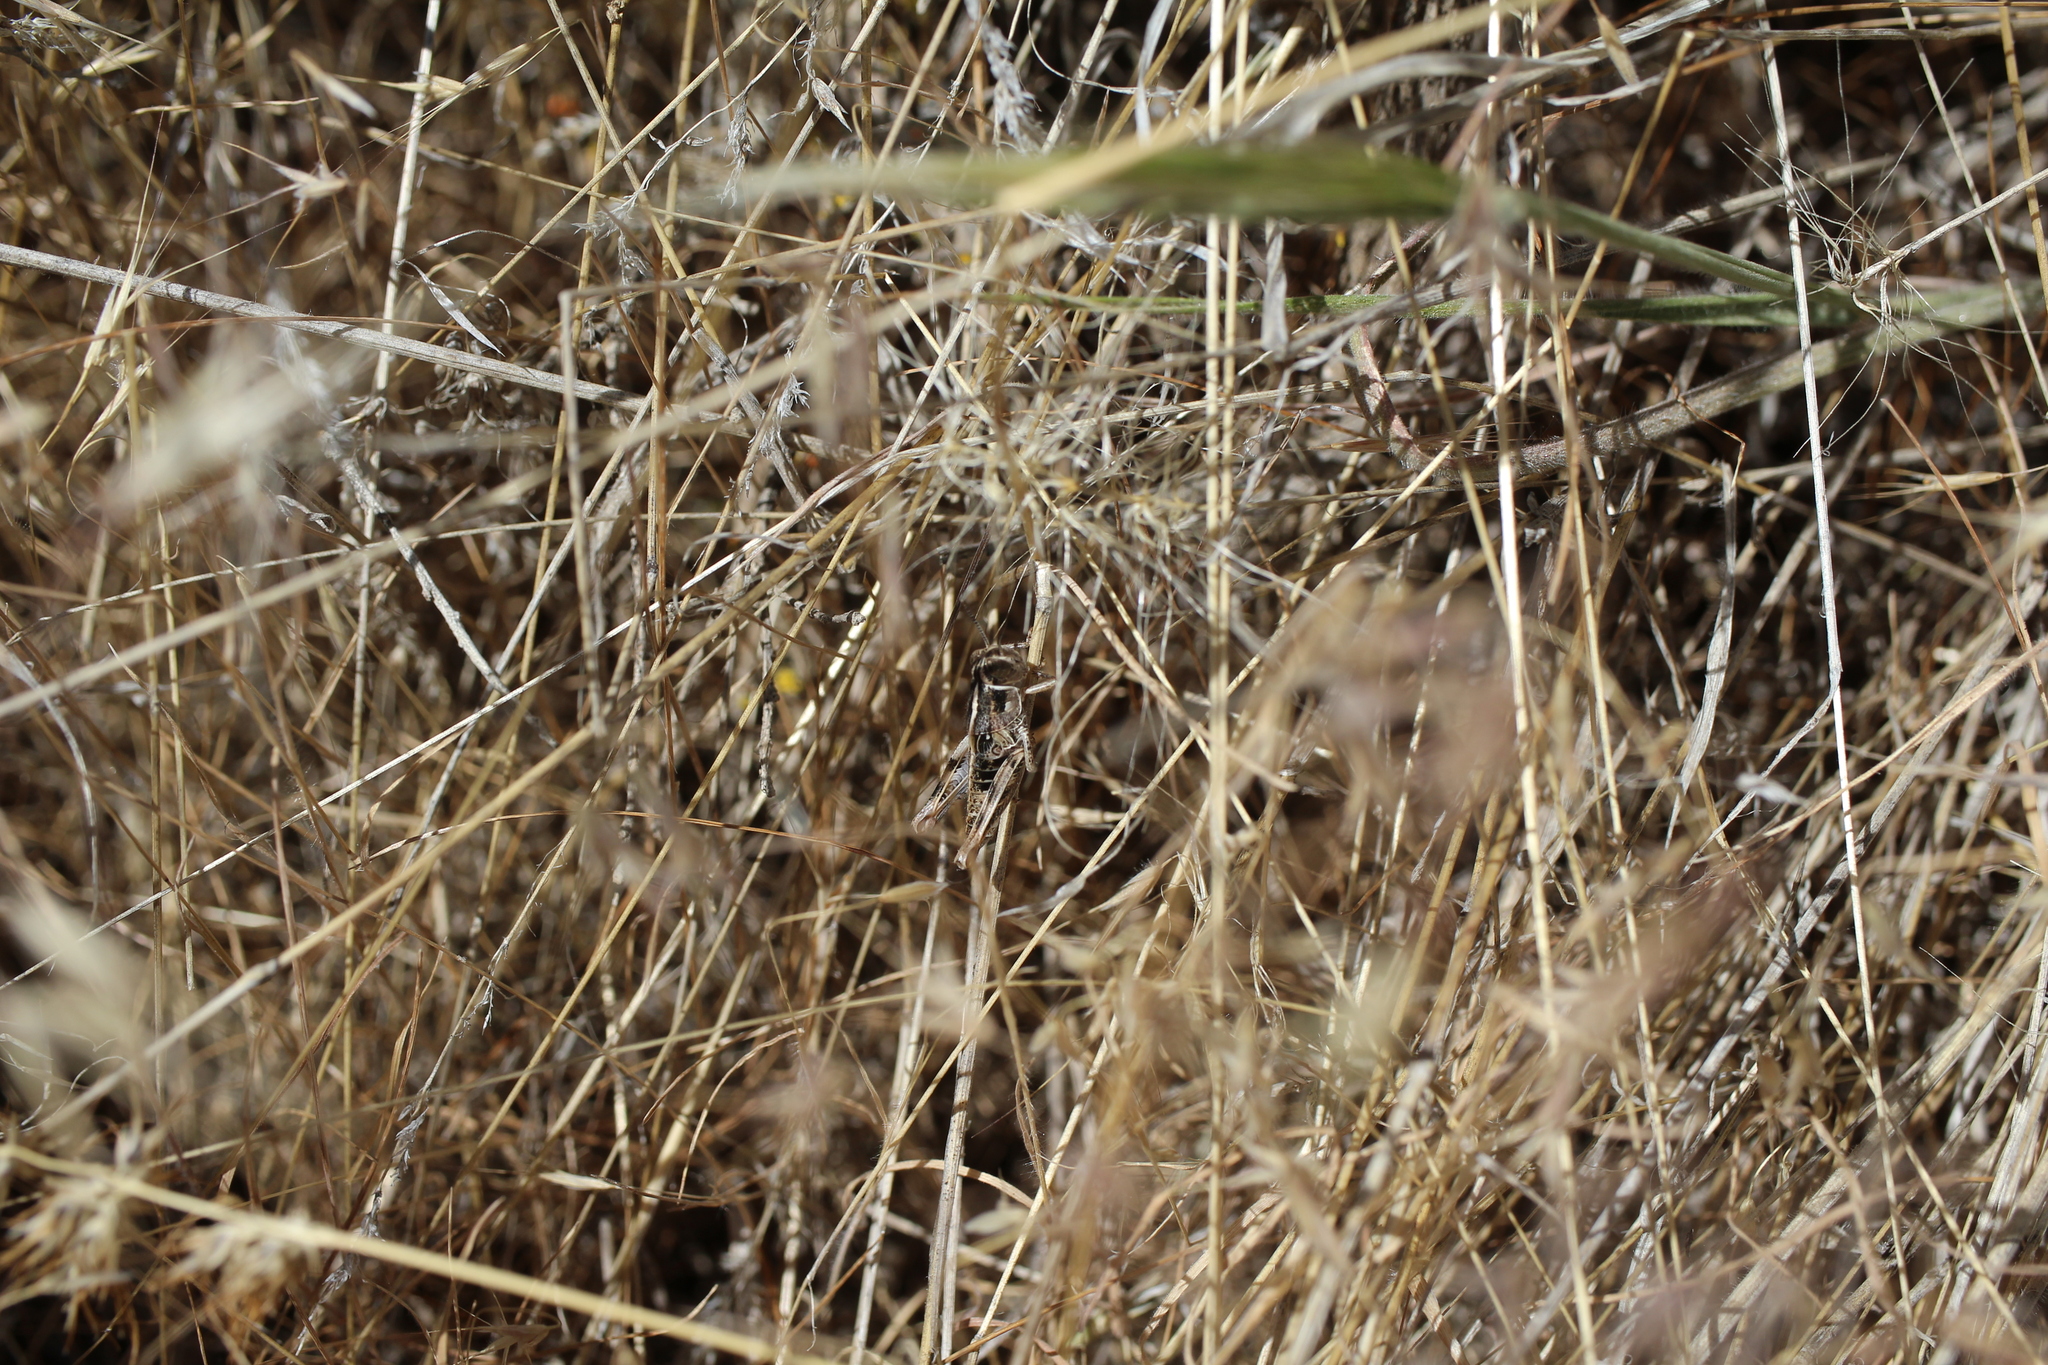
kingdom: Animalia
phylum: Arthropoda
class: Insecta
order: Orthoptera
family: Acrididae
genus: Oedaleonotus
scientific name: Oedaleonotus enigma
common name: Valley grasshopper
